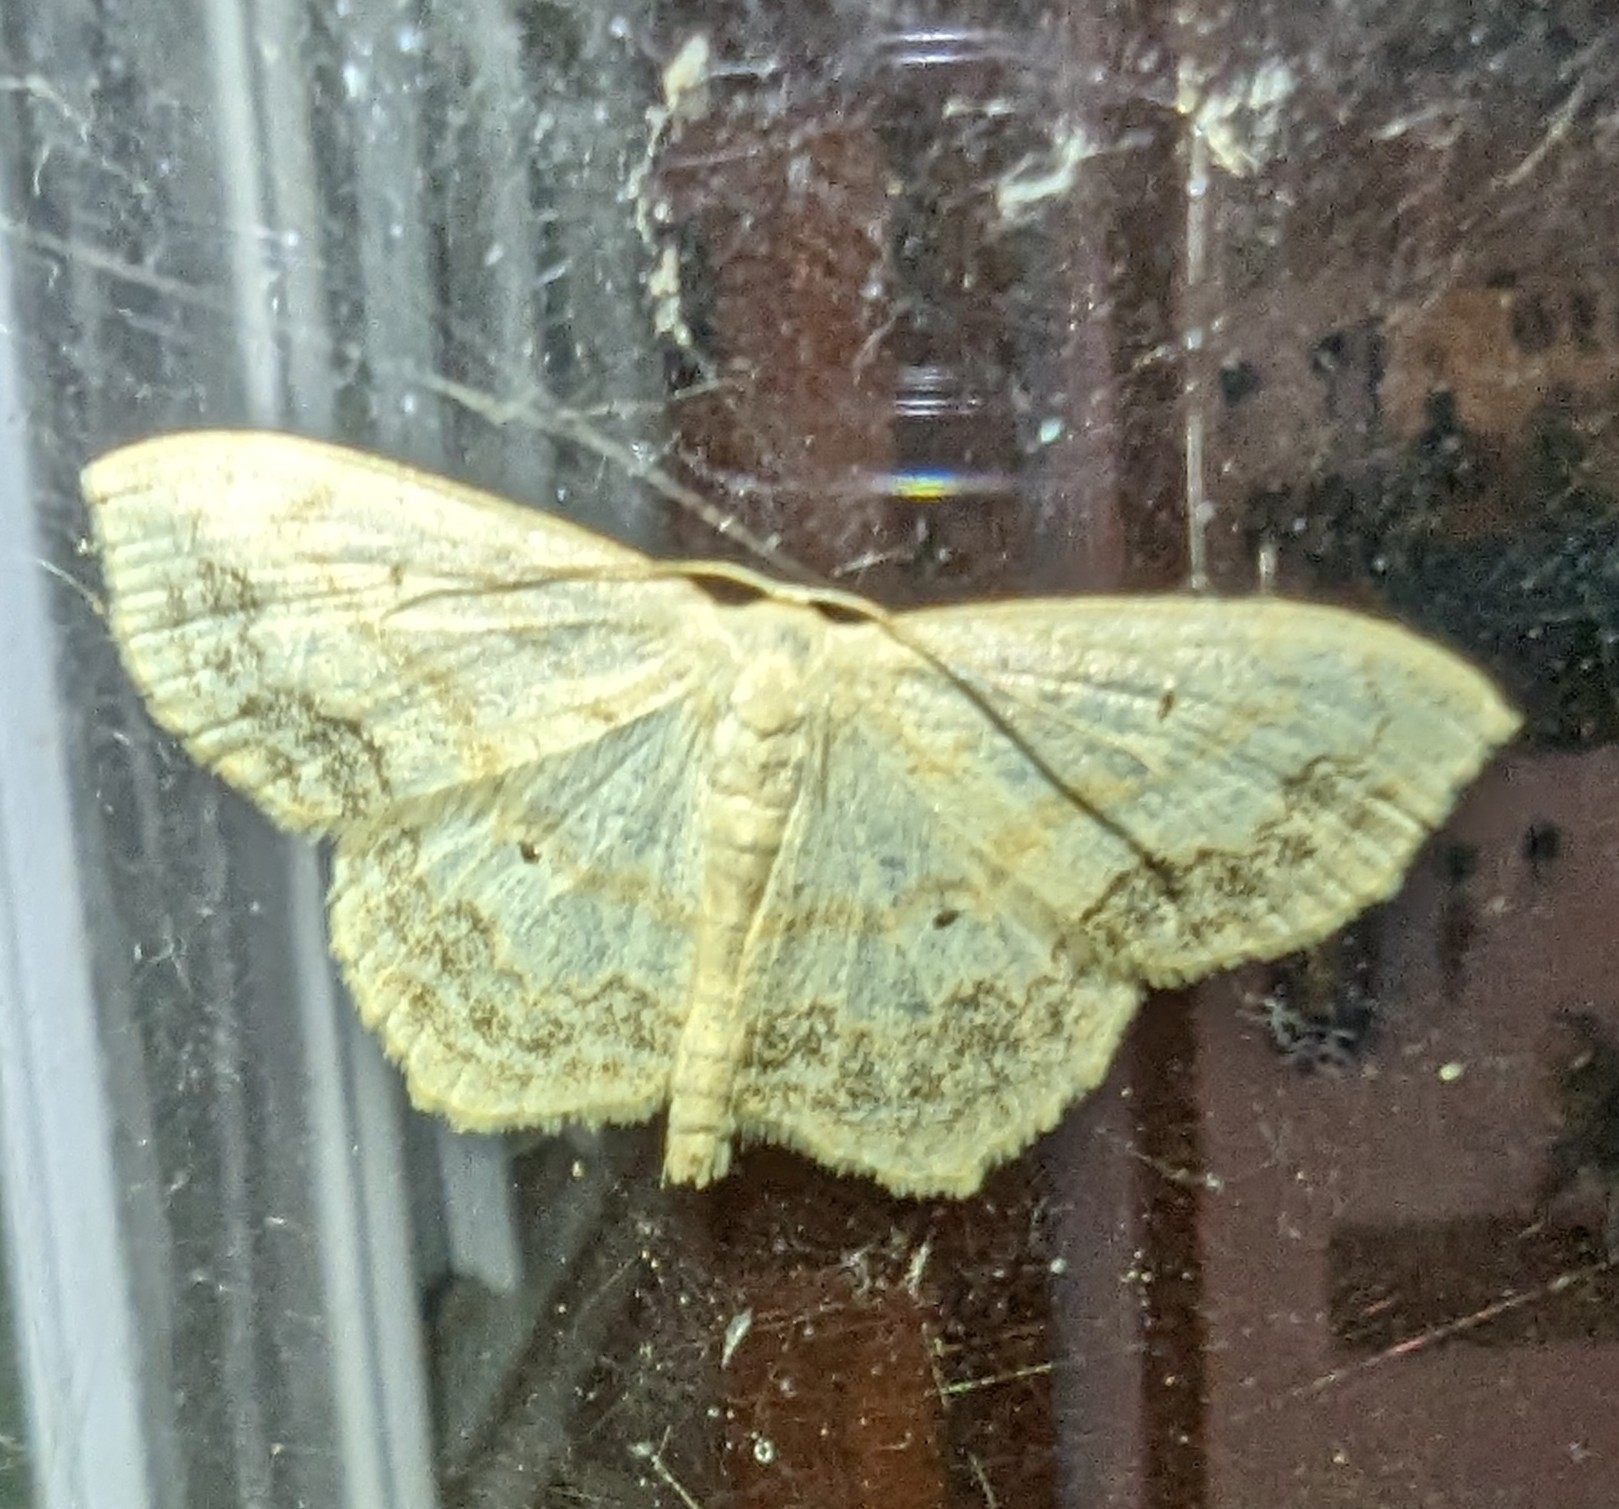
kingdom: Animalia
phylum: Arthropoda
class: Insecta
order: Lepidoptera
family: Geometridae
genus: Scopula
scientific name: Scopula limboundata
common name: Large lace border
